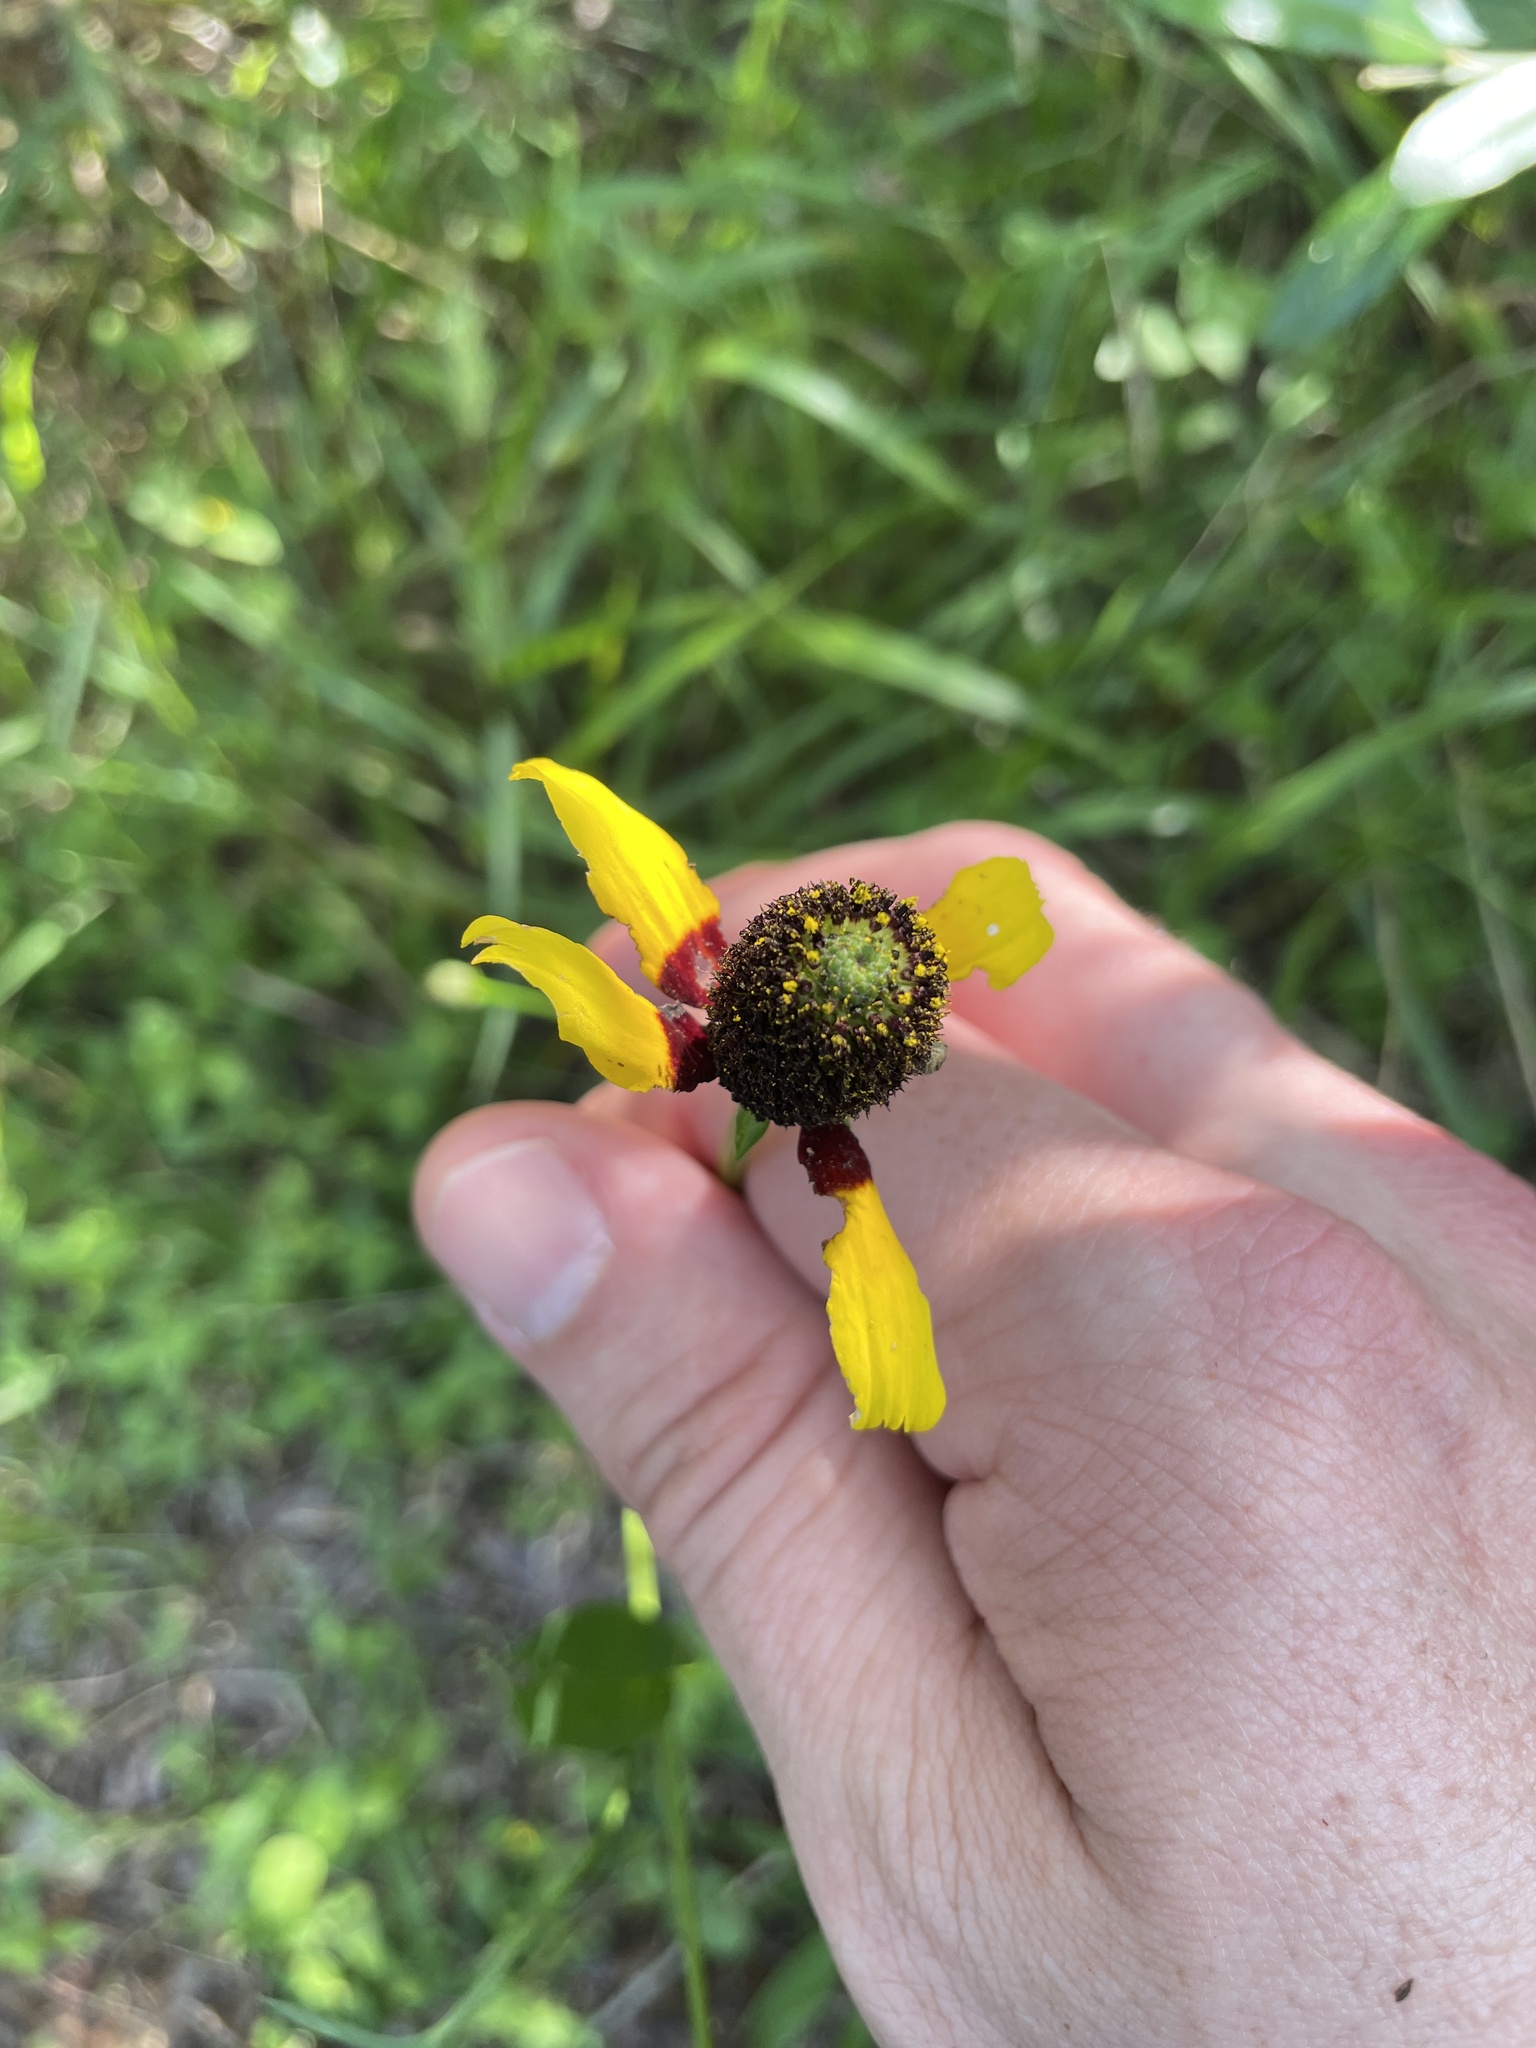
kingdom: Plantae
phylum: Tracheophyta
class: Magnoliopsida
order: Asterales
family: Asteraceae
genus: Rudbeckia
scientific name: Rudbeckia amplexicaulis
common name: Clasping-leaf coneflower
